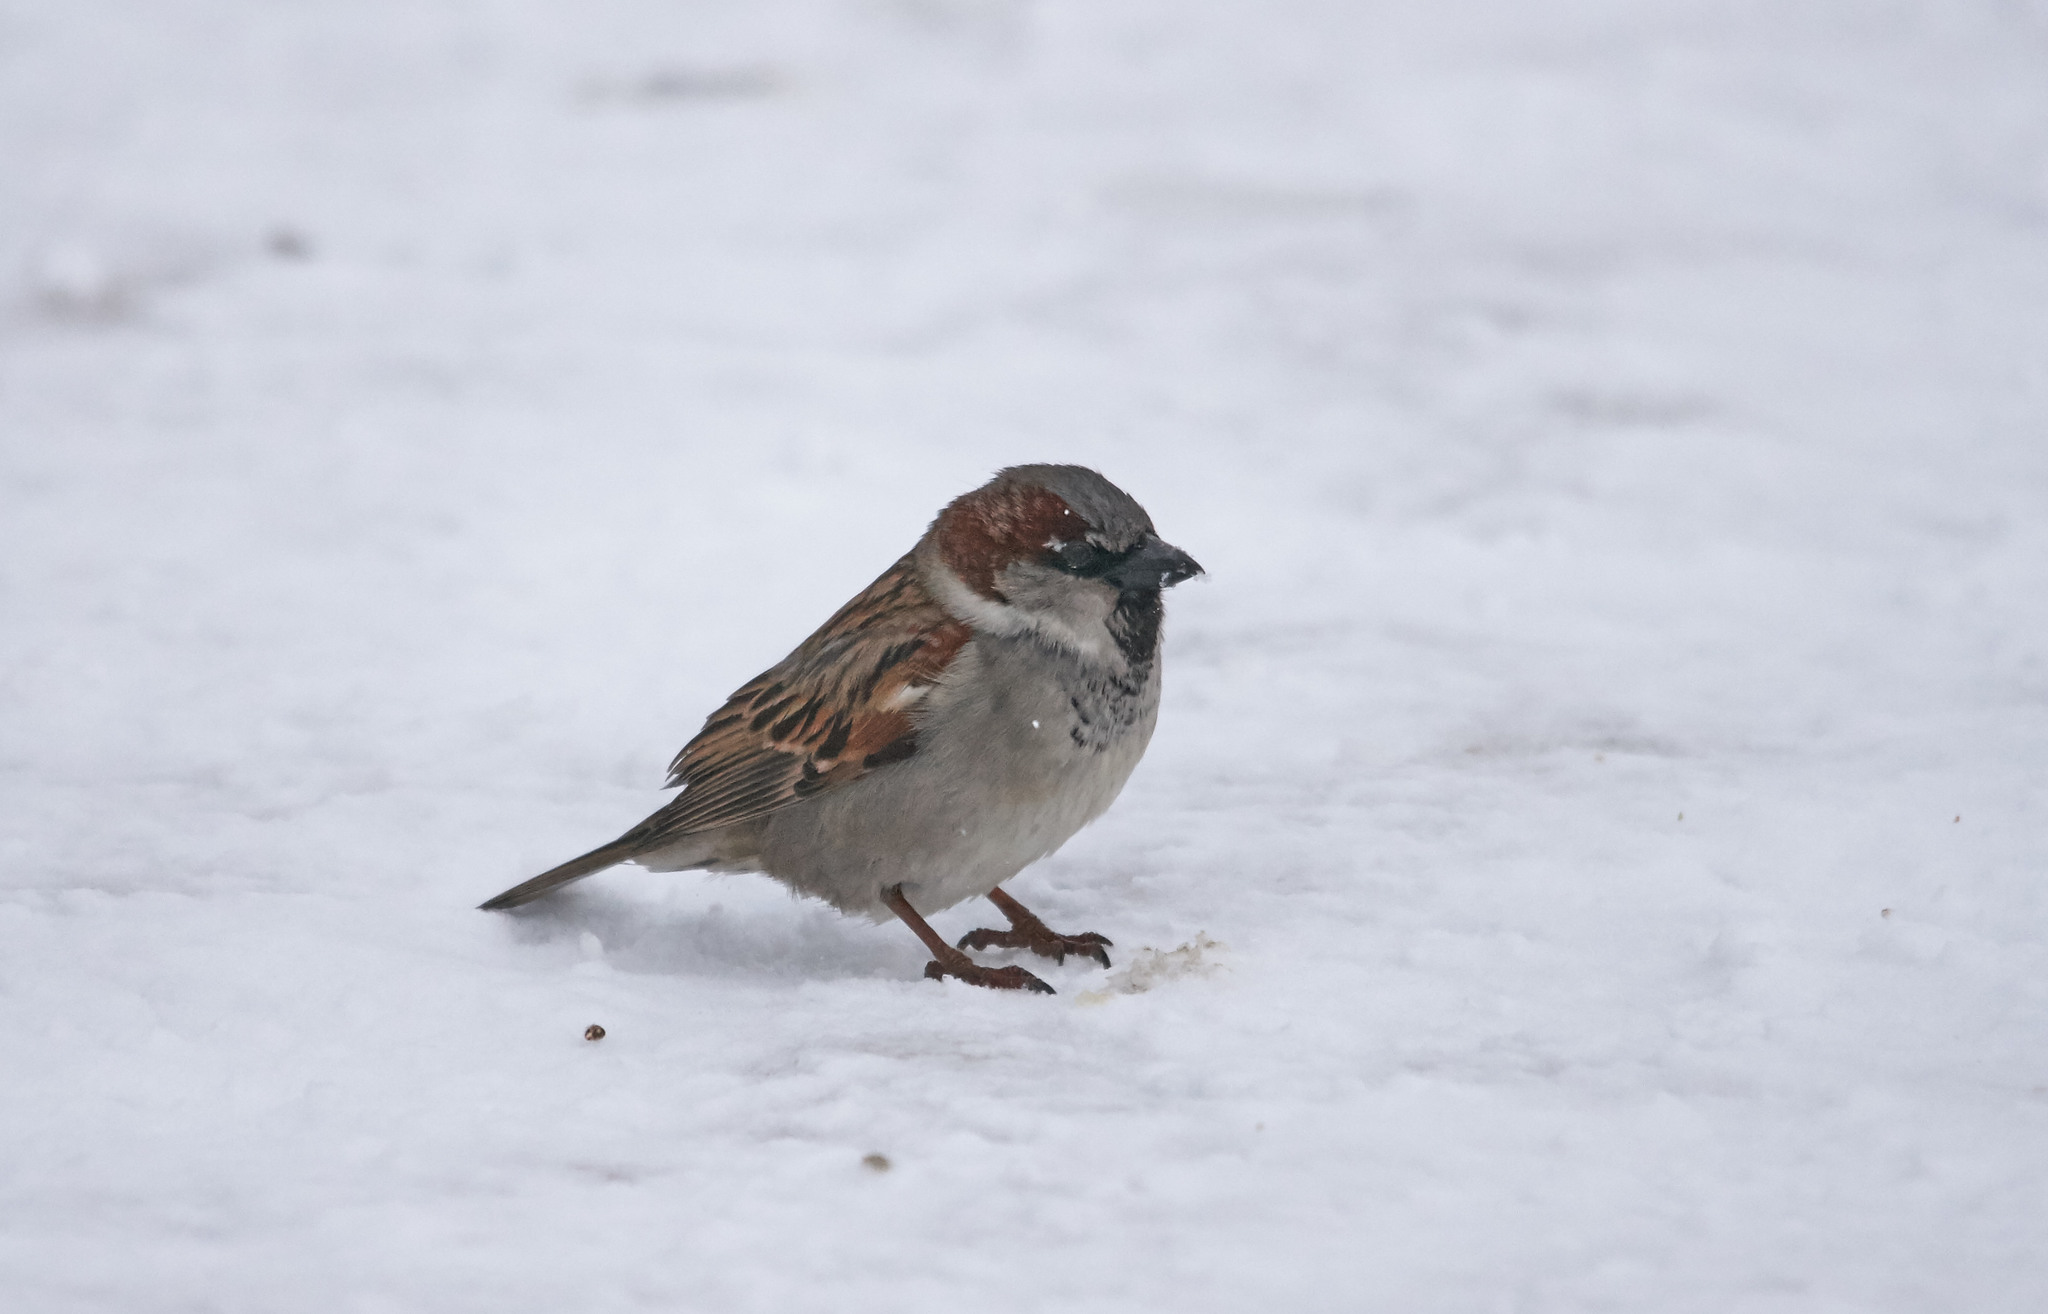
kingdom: Animalia
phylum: Chordata
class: Aves
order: Passeriformes
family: Passeridae
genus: Passer
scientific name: Passer domesticus
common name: House sparrow
